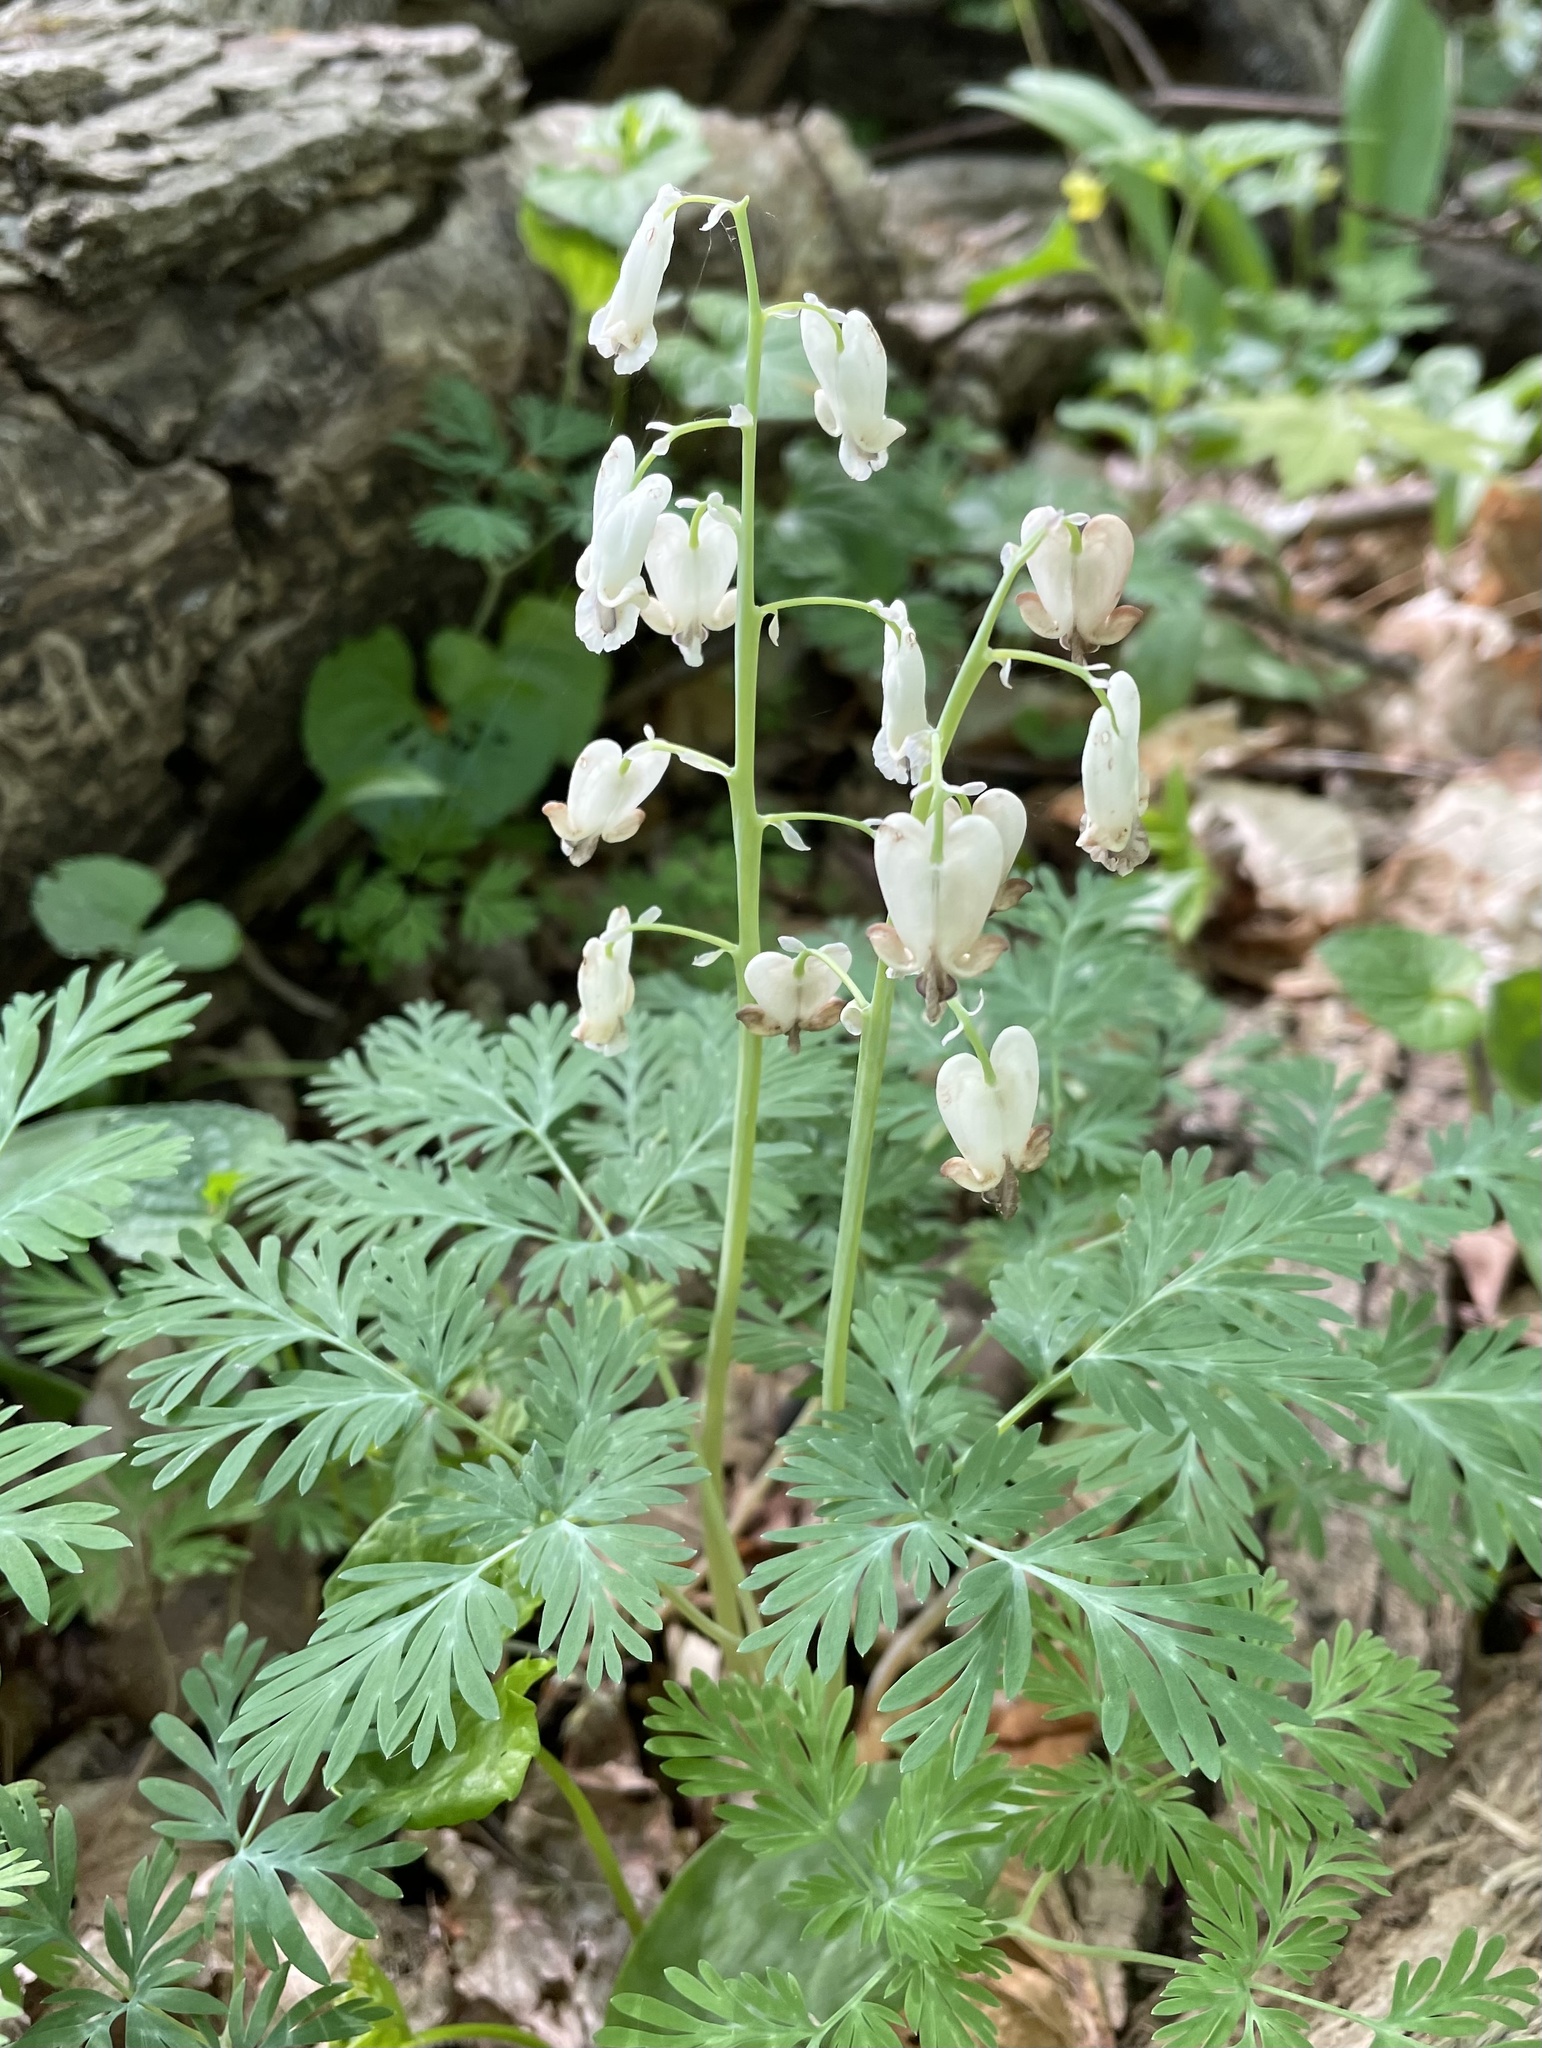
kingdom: Plantae
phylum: Tracheophyta
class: Magnoliopsida
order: Ranunculales
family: Papaveraceae
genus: Dicentra
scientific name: Dicentra canadensis
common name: Squirrel-corn
